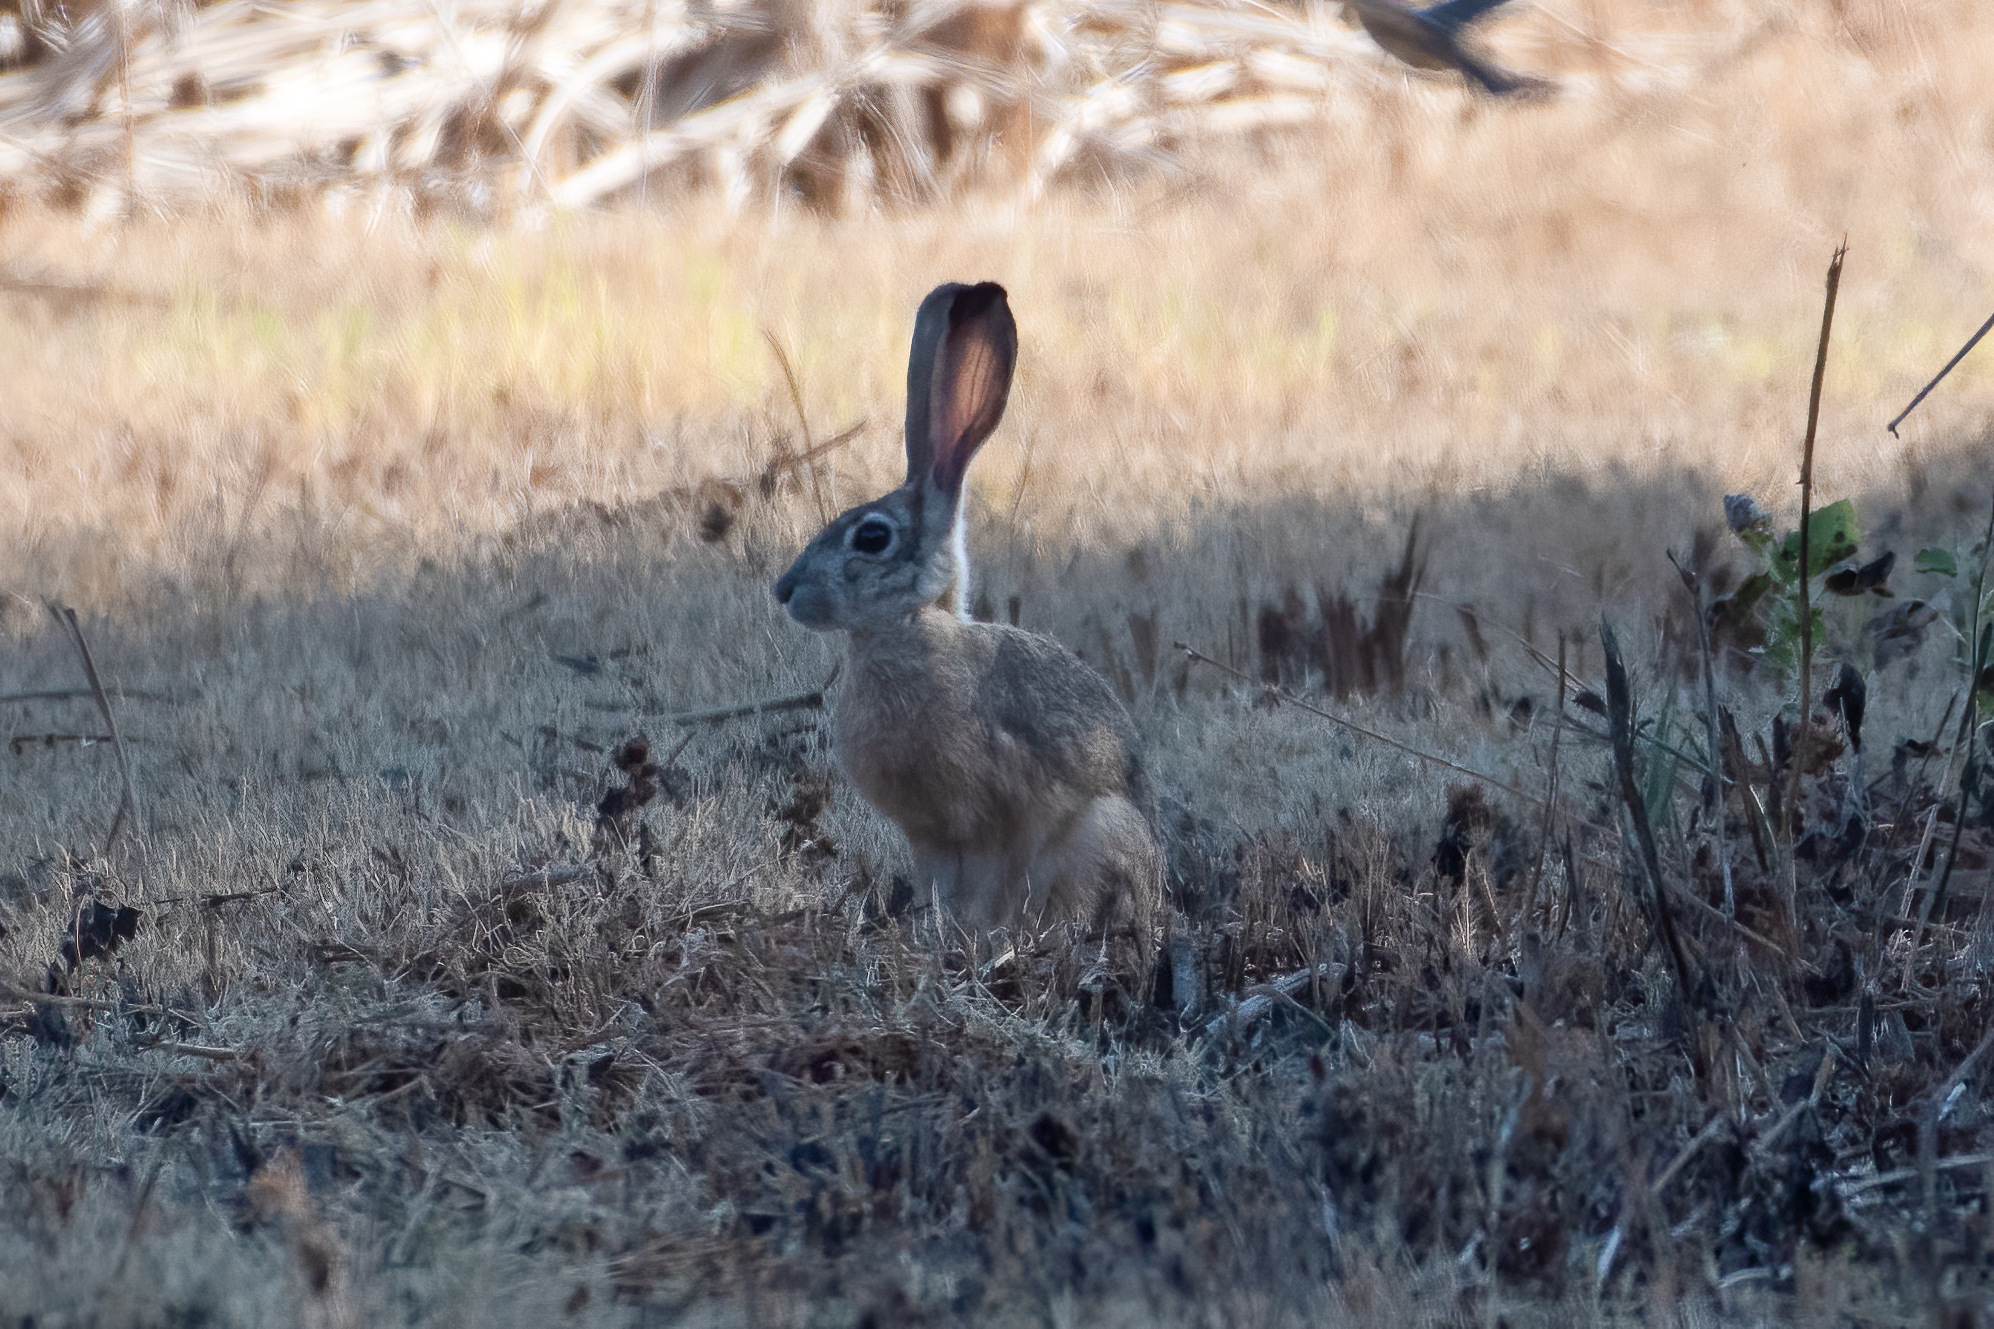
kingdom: Animalia
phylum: Chordata
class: Mammalia
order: Lagomorpha
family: Leporidae
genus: Lepus
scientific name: Lepus californicus
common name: Black-tailed jackrabbit
